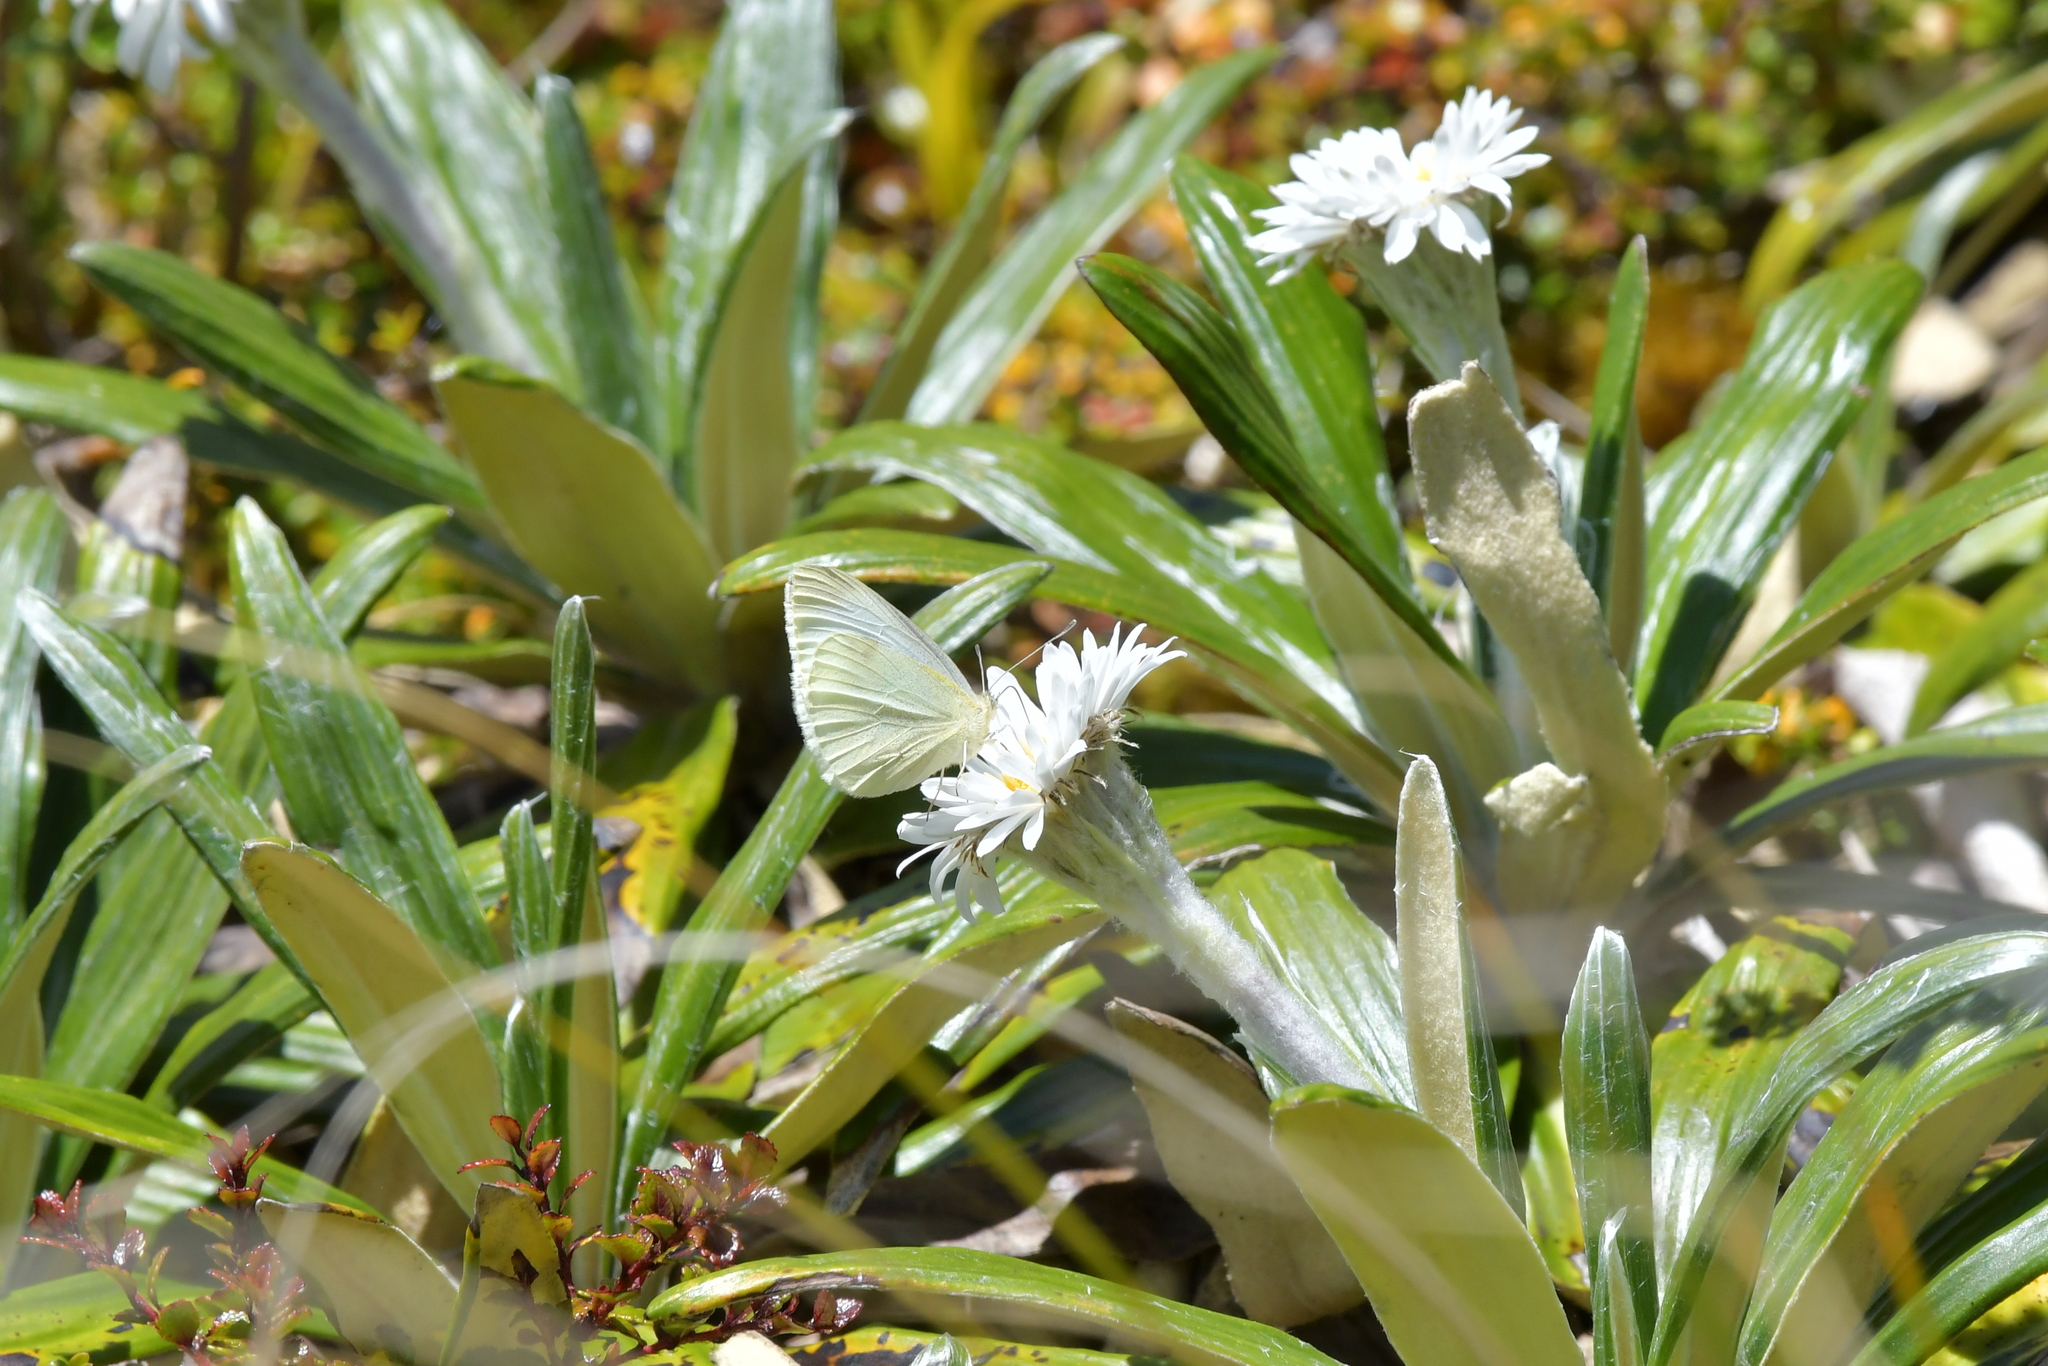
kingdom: Animalia
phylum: Arthropoda
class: Insecta
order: Lepidoptera
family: Pieridae
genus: Pieris
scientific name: Pieris rapae
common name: Small white
